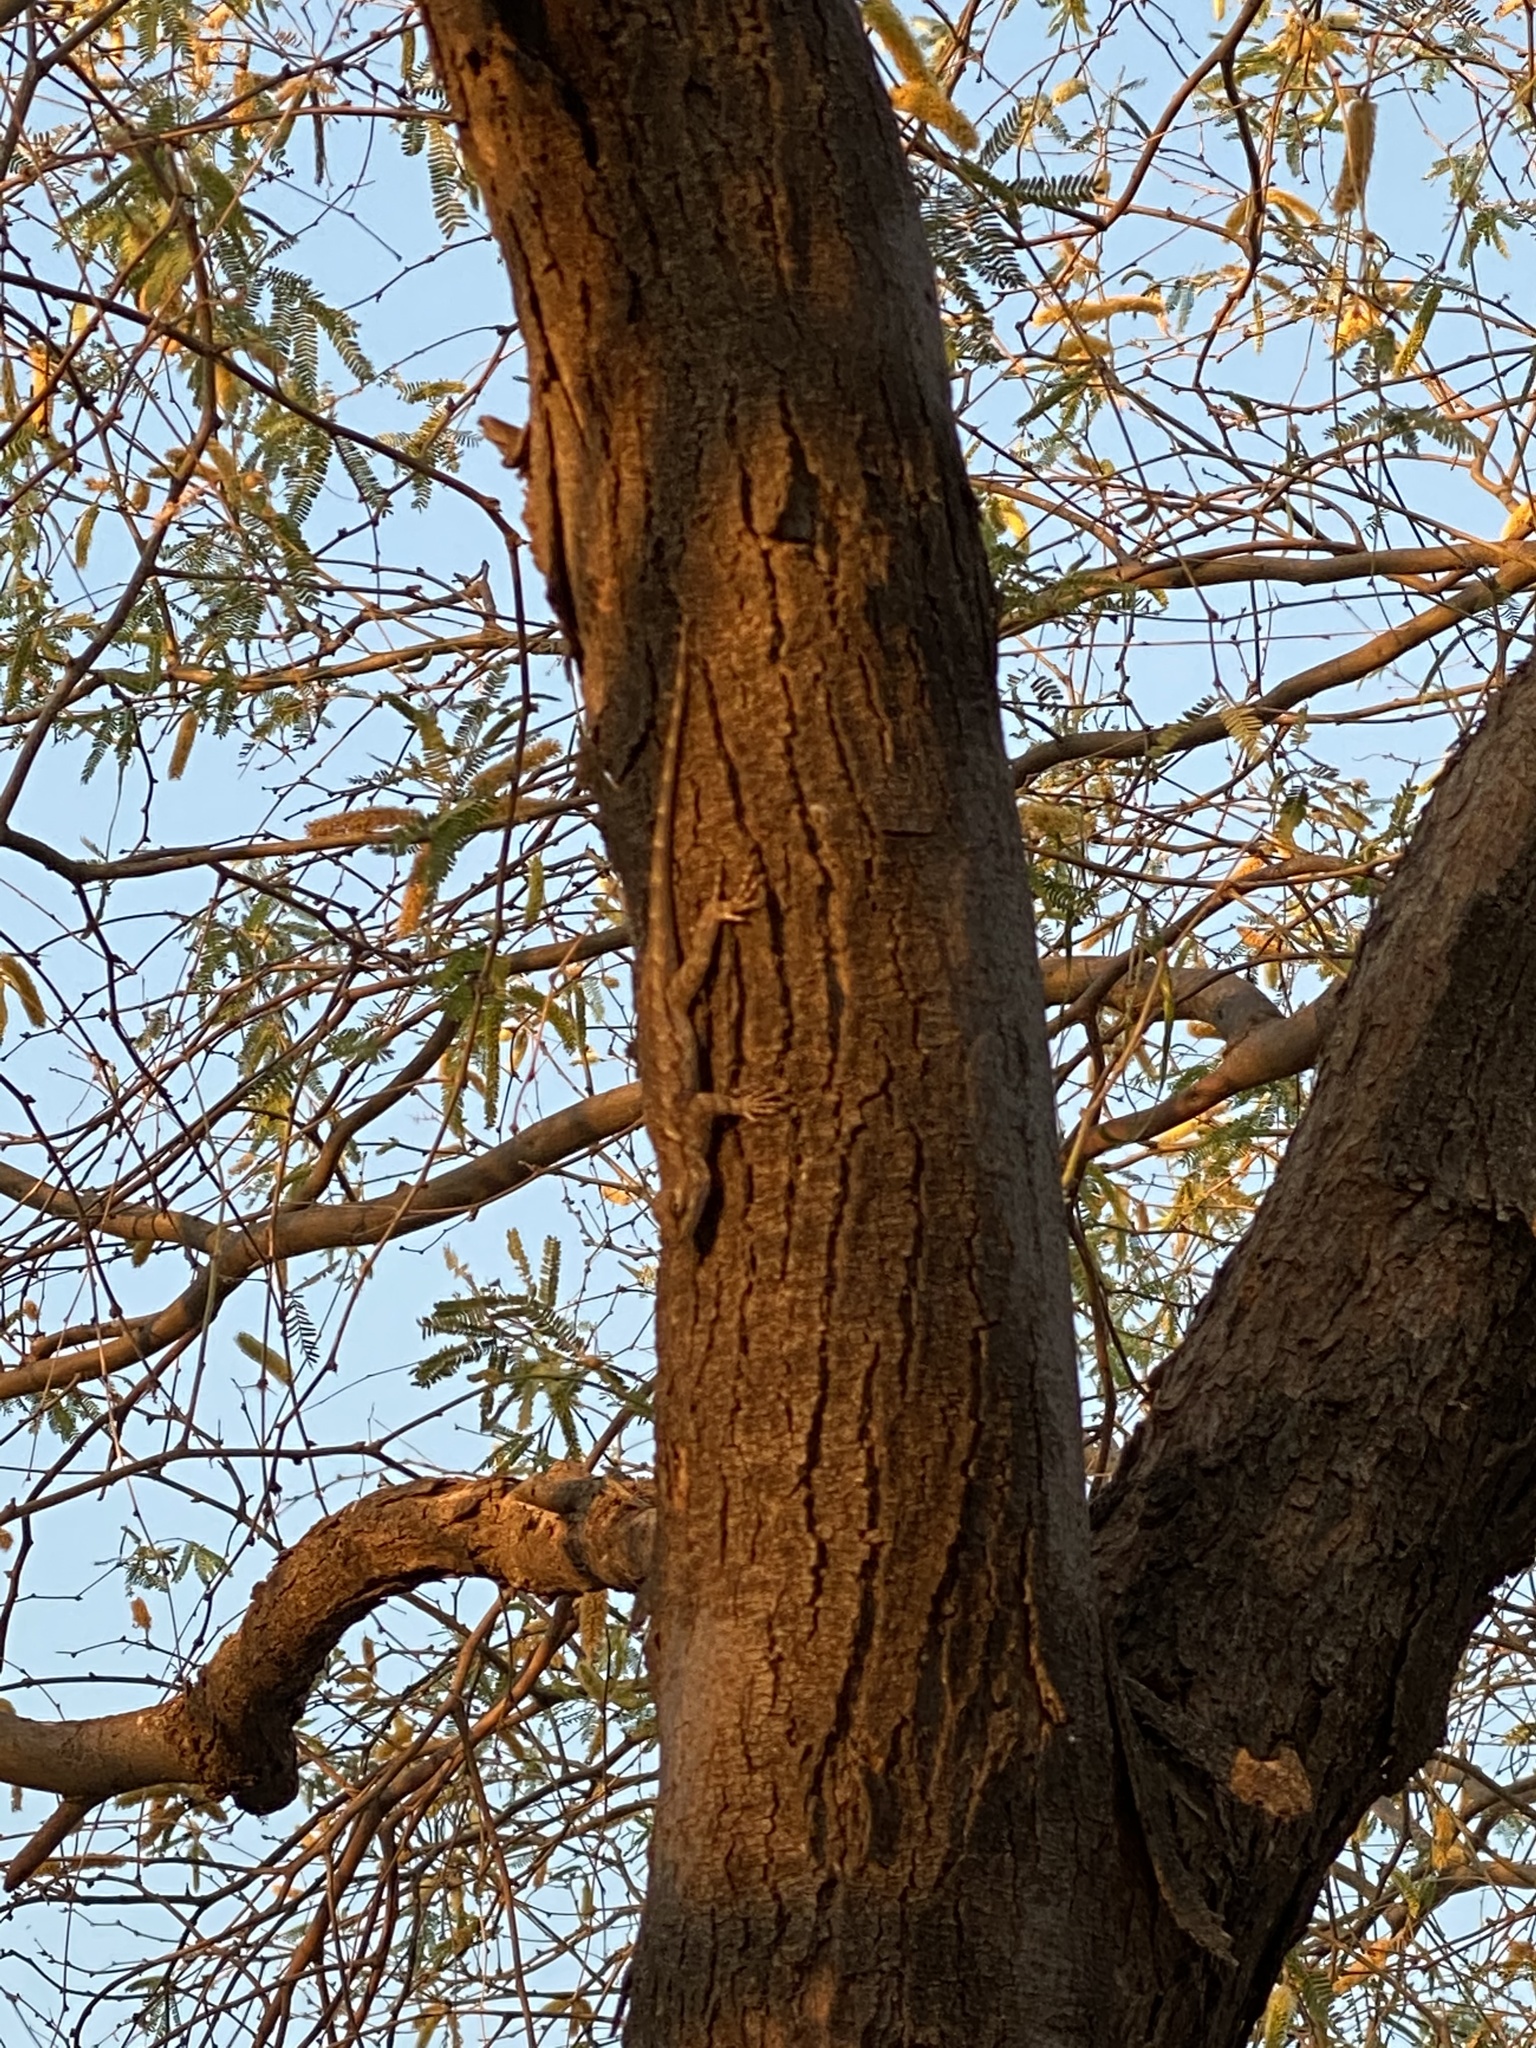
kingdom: Animalia
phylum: Chordata
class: Squamata
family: Phrynosomatidae
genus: Sceloporus
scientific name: Sceloporus clarkii
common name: Clark's spiny lizard
